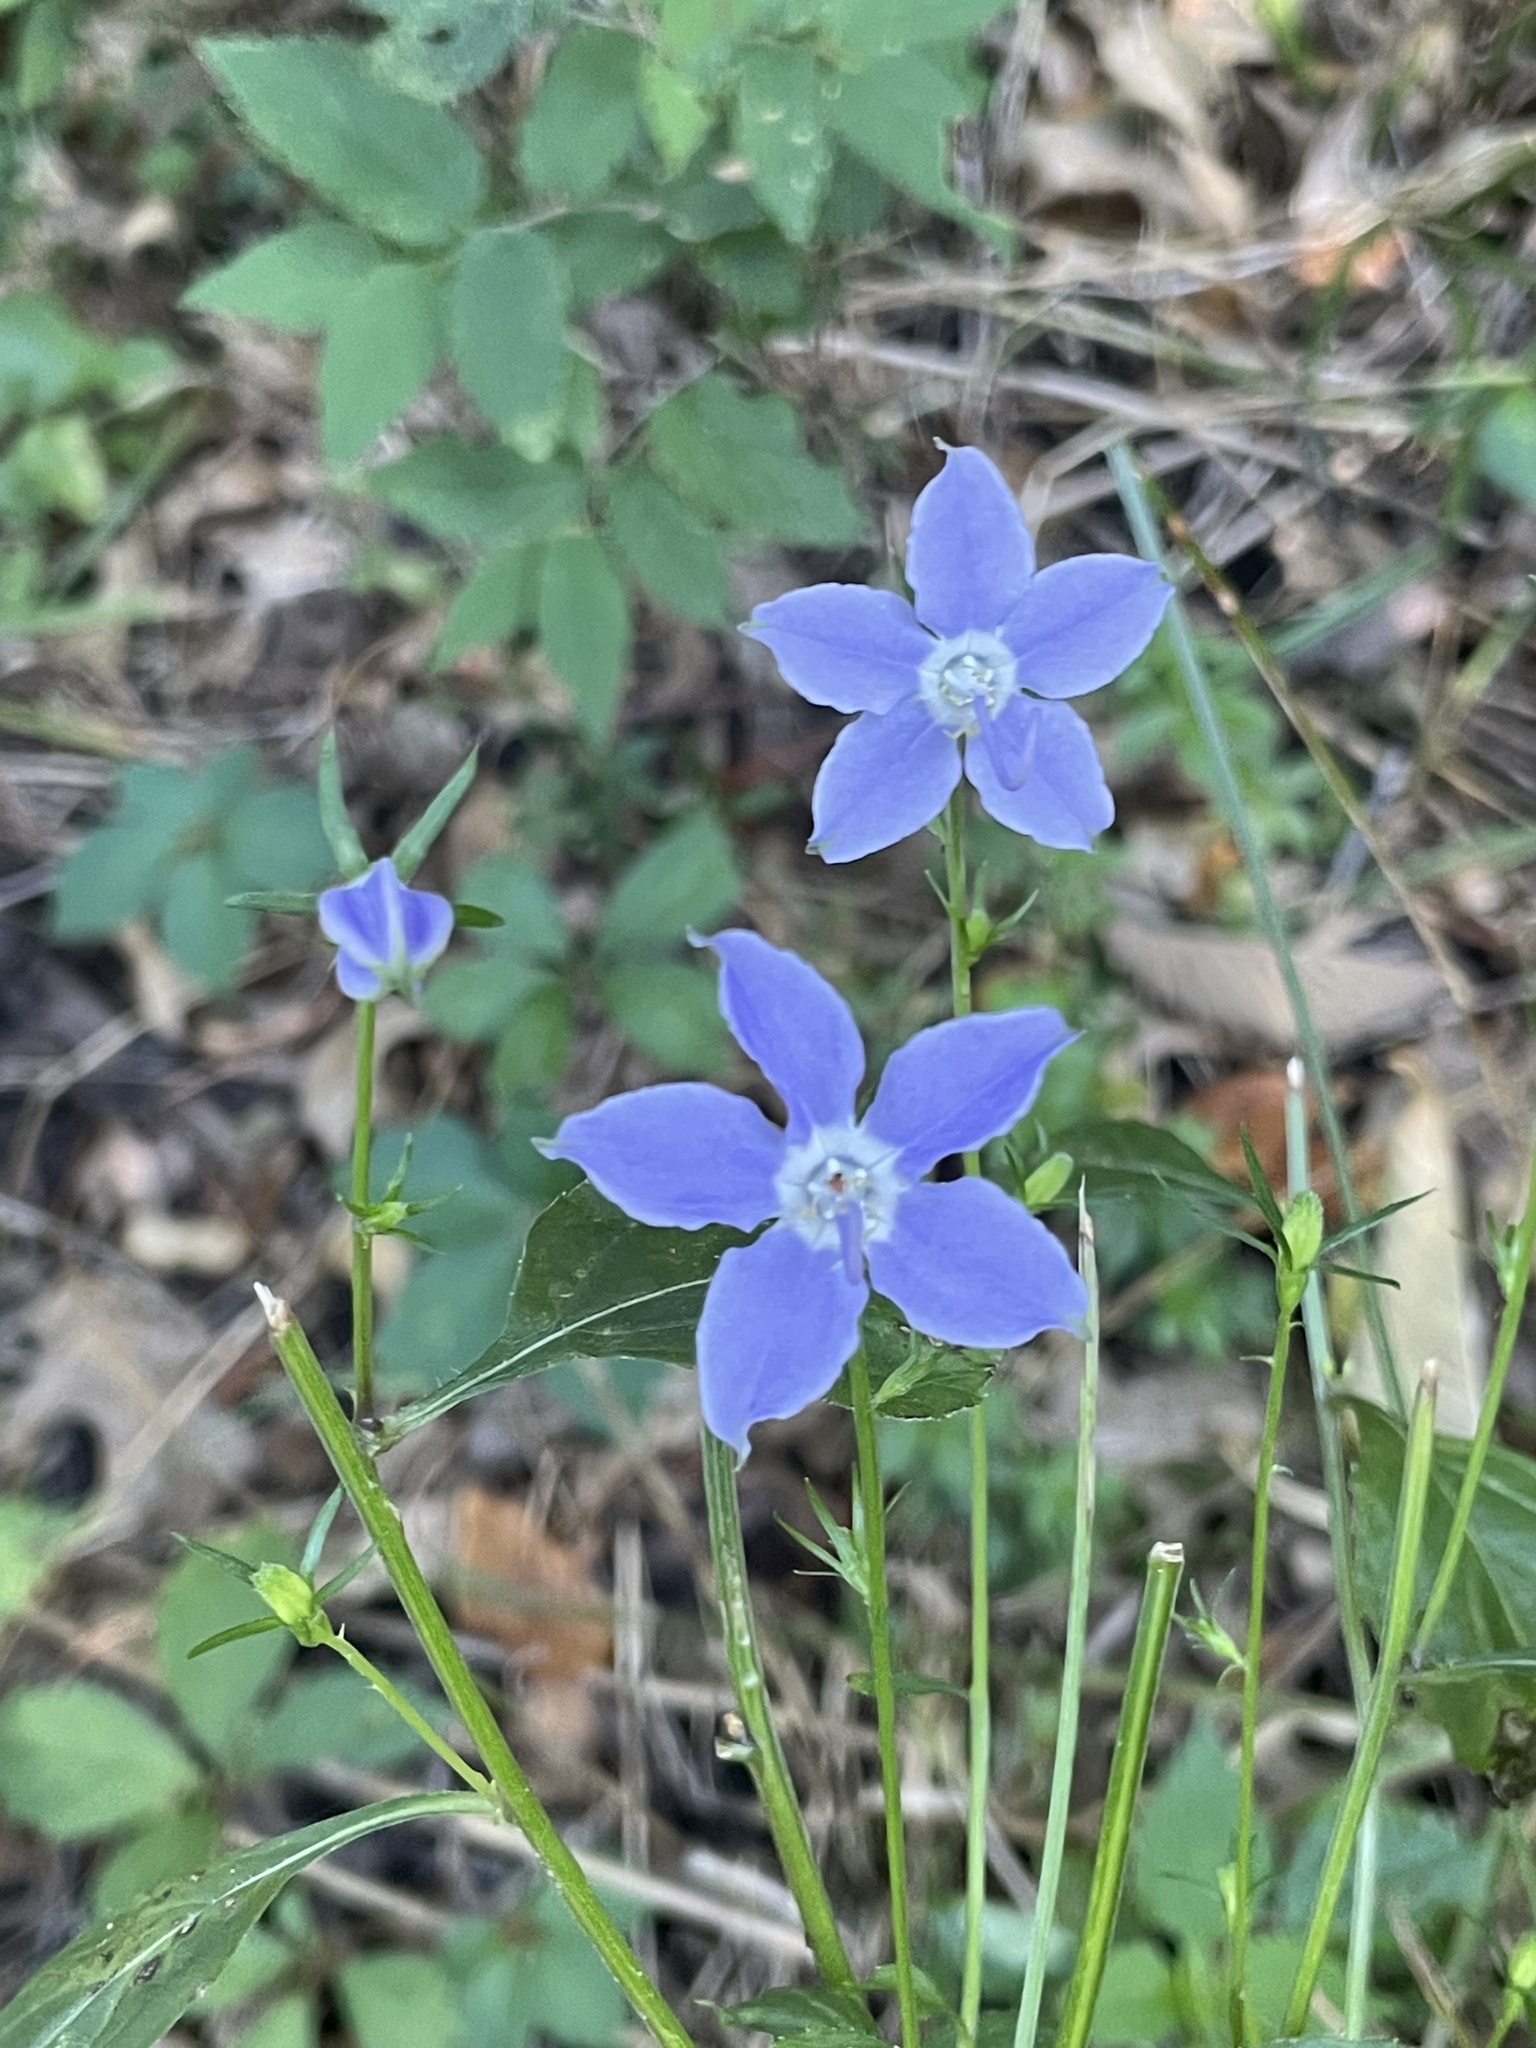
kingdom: Plantae
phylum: Tracheophyta
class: Magnoliopsida
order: Asterales
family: Campanulaceae
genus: Campanulastrum
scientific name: Campanulastrum americanum
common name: American bellflower
